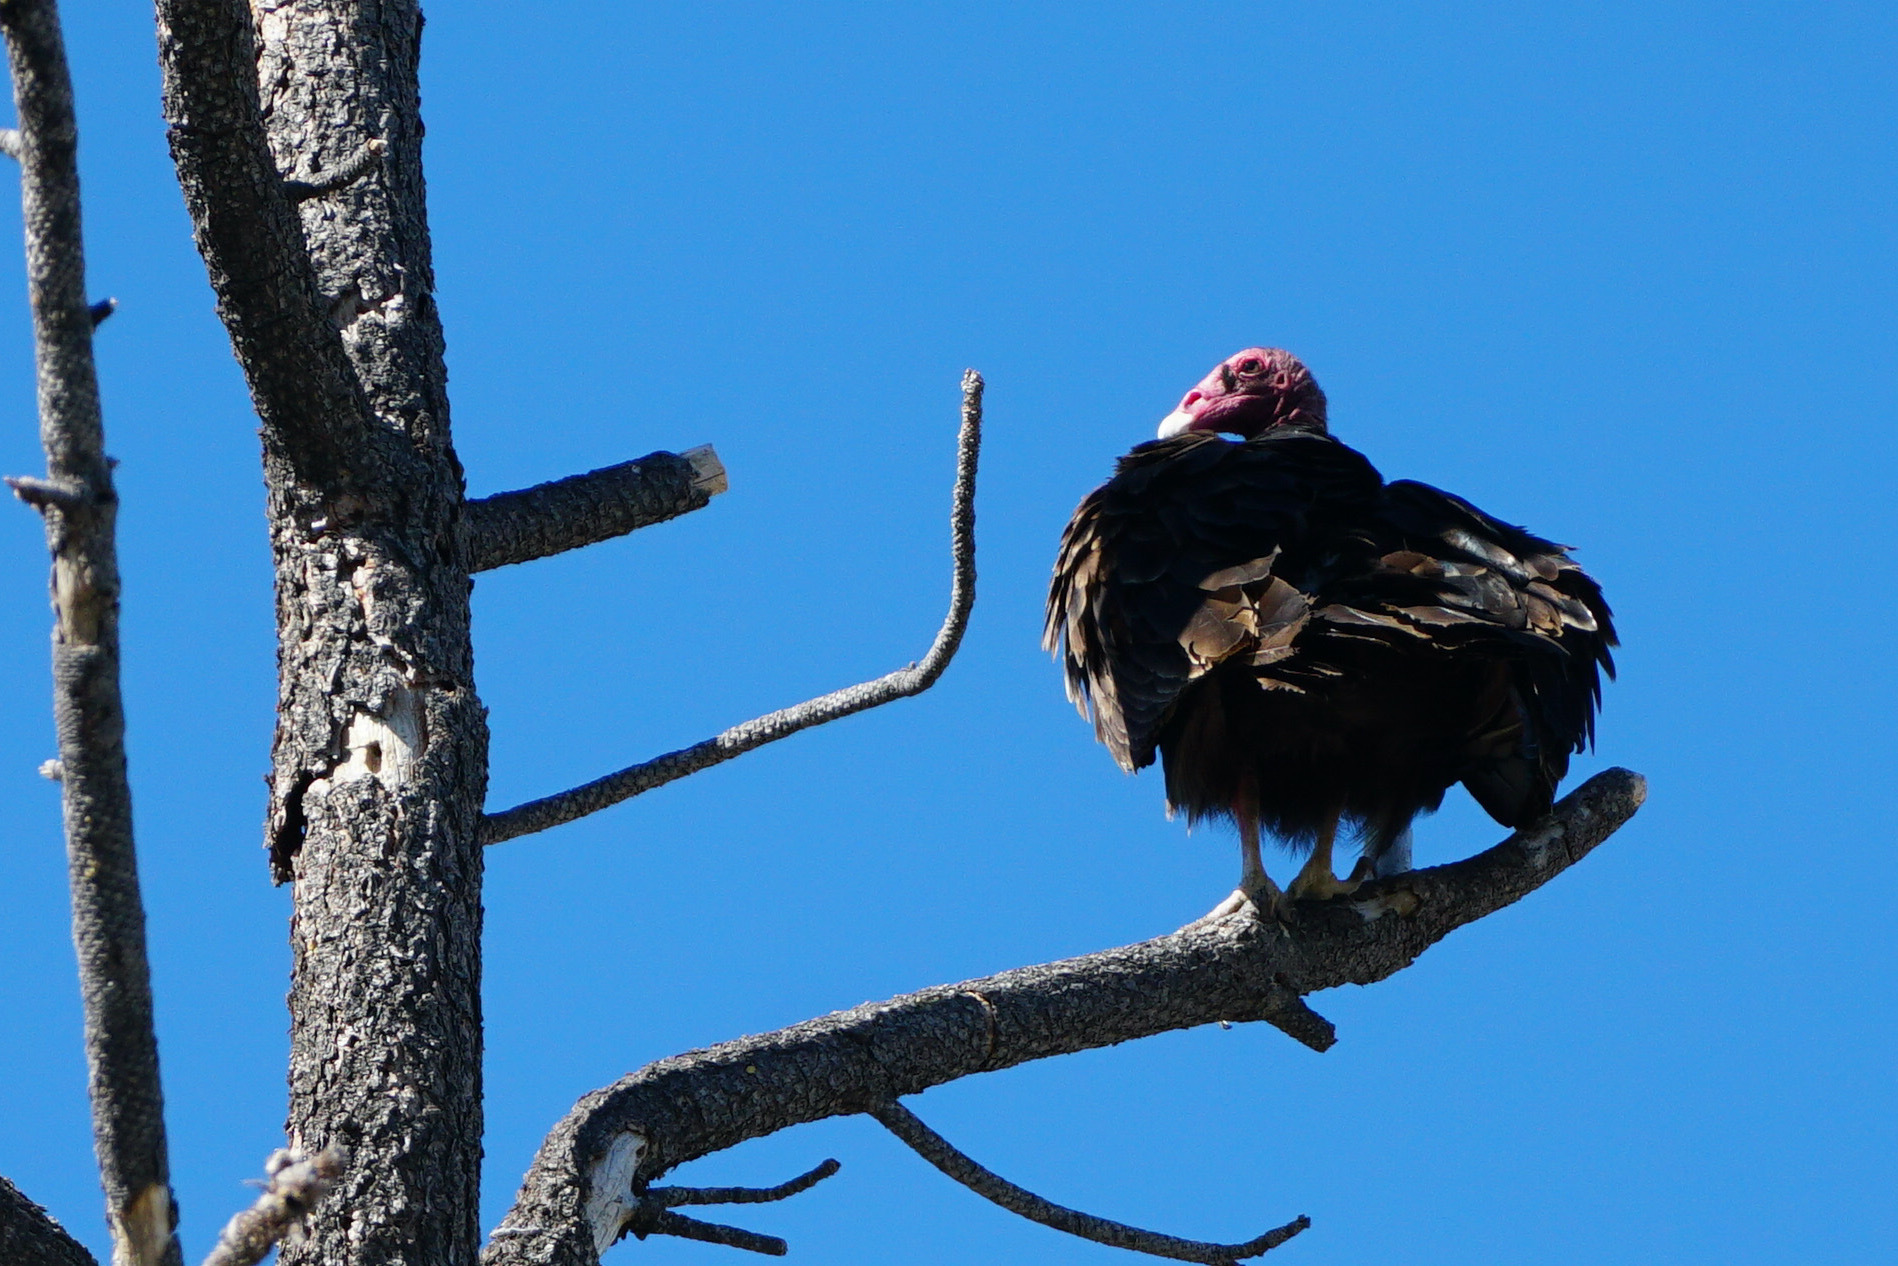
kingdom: Animalia
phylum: Chordata
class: Aves
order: Accipitriformes
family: Cathartidae
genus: Cathartes
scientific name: Cathartes aura
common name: Turkey vulture
